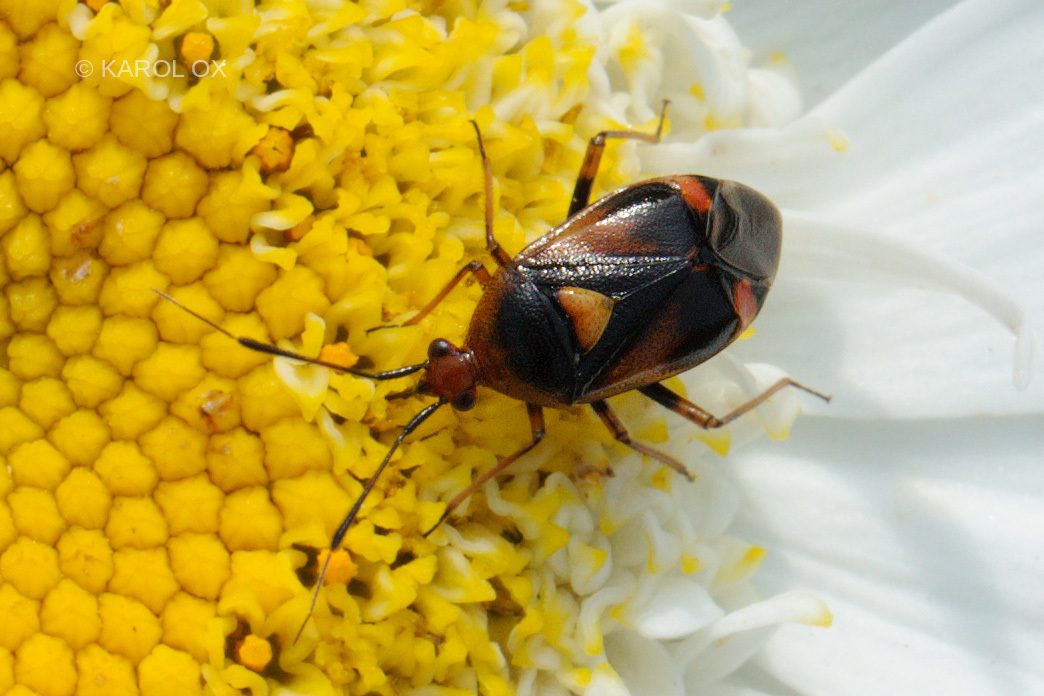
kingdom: Animalia
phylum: Arthropoda
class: Insecta
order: Hemiptera
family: Miridae
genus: Deraeocoris
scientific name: Deraeocoris ruber
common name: Plant bug
